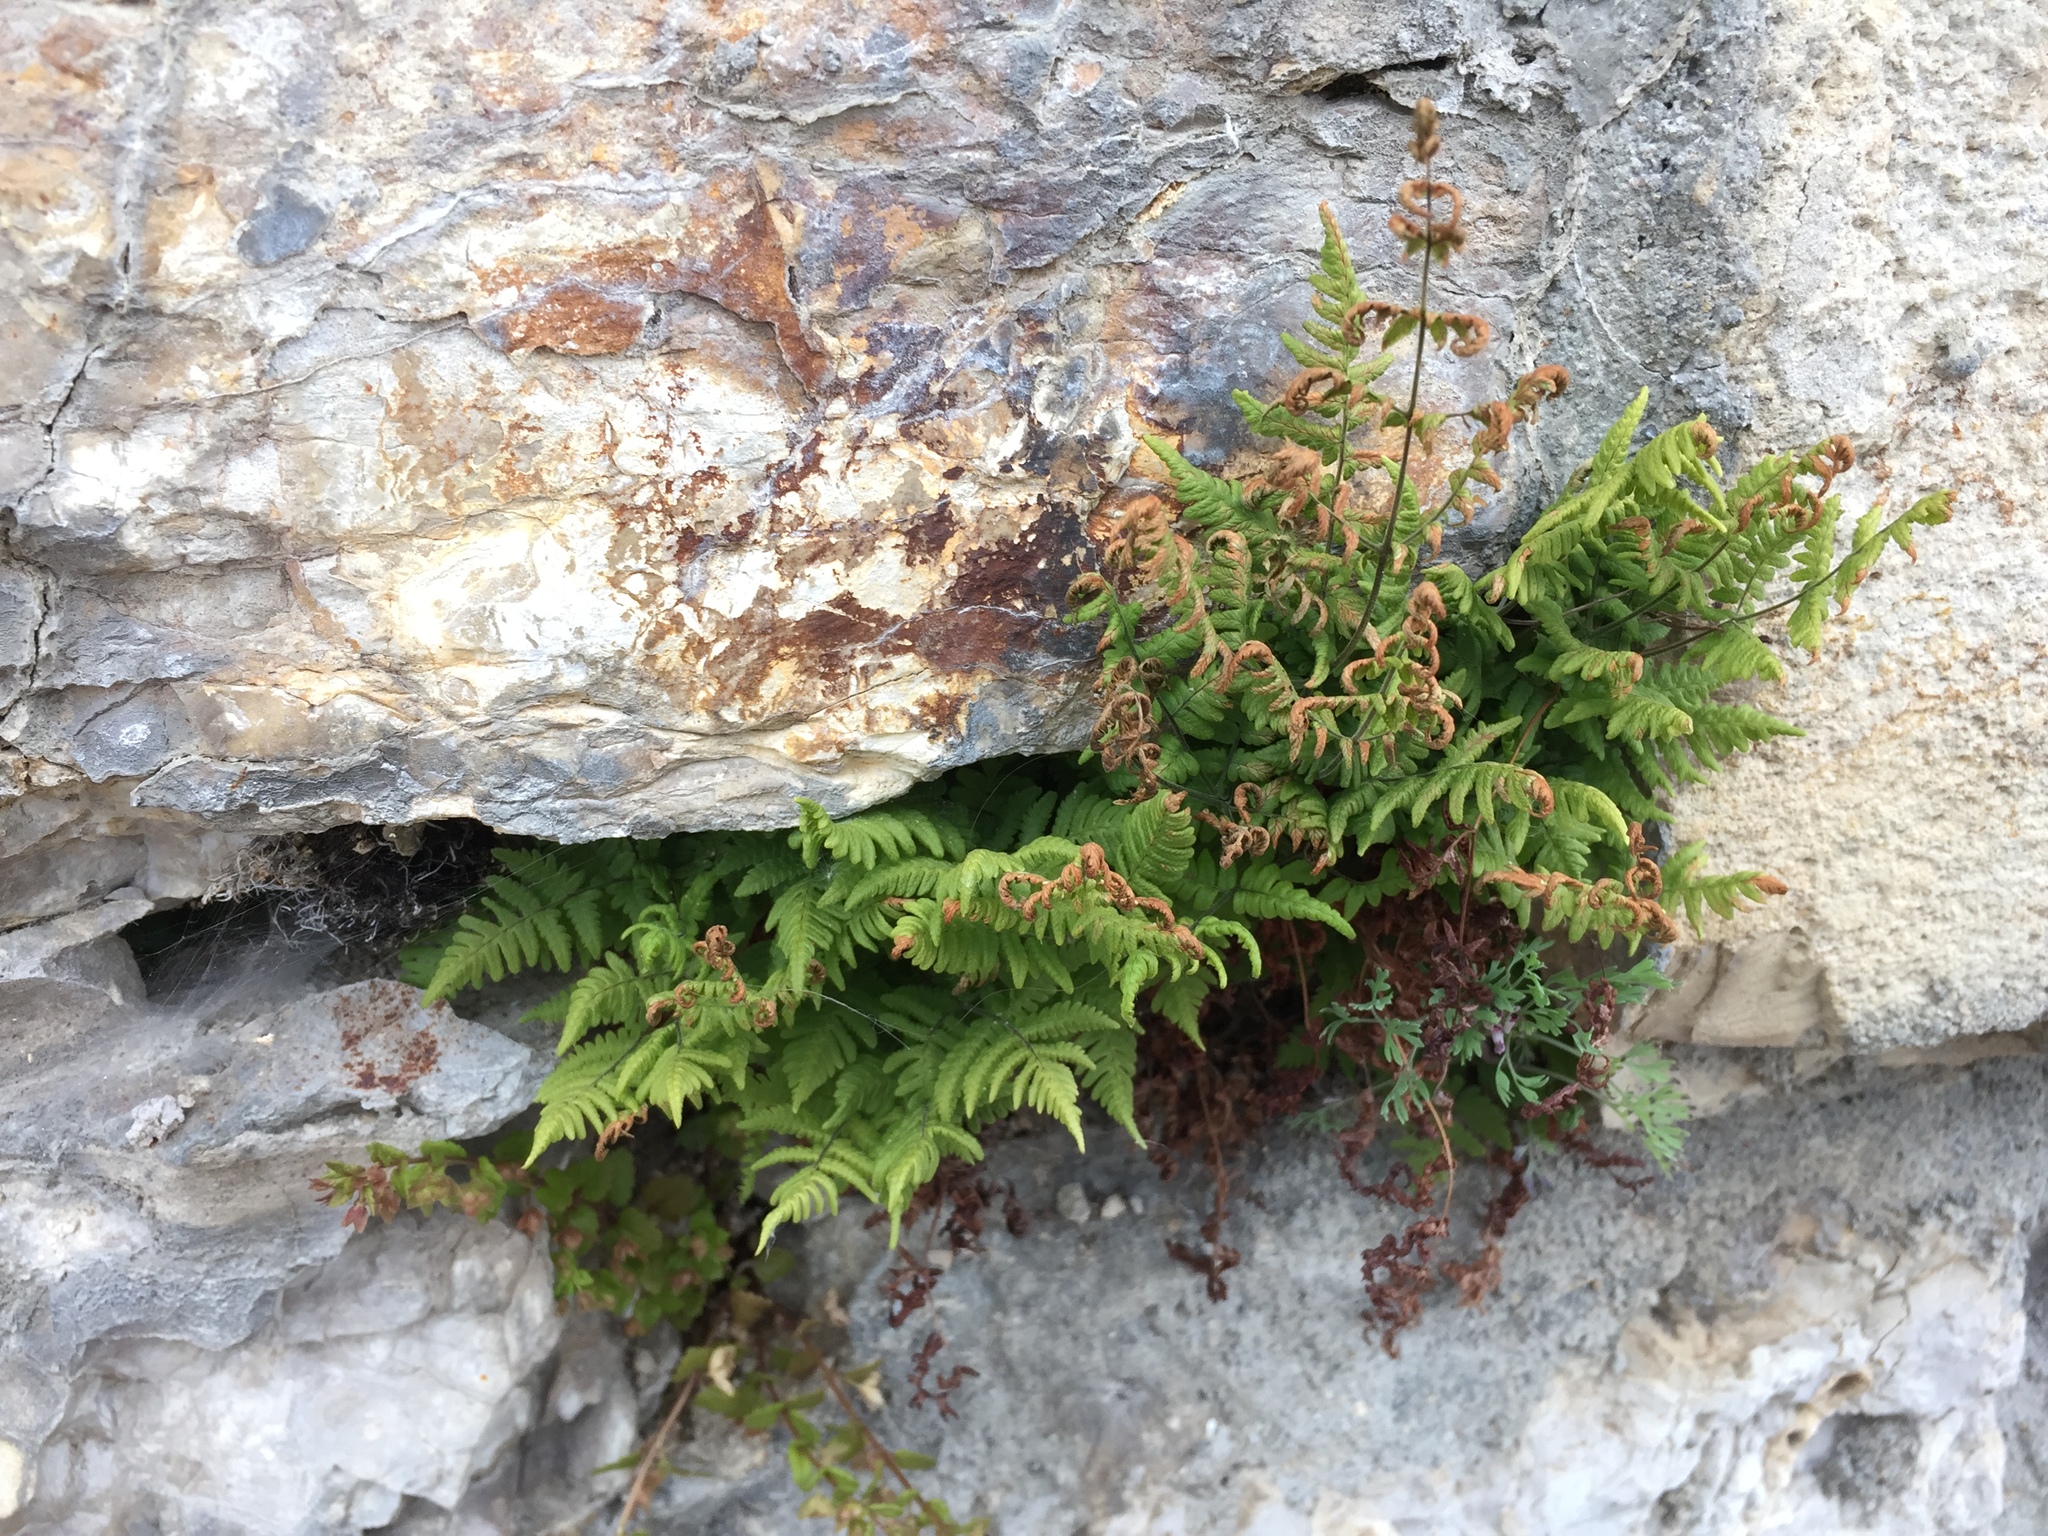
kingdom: Plantae
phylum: Tracheophyta
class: Polypodiopsida
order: Polypodiales
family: Cystopteridaceae
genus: Gymnocarpium
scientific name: Gymnocarpium robertianum
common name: Limestone fern
